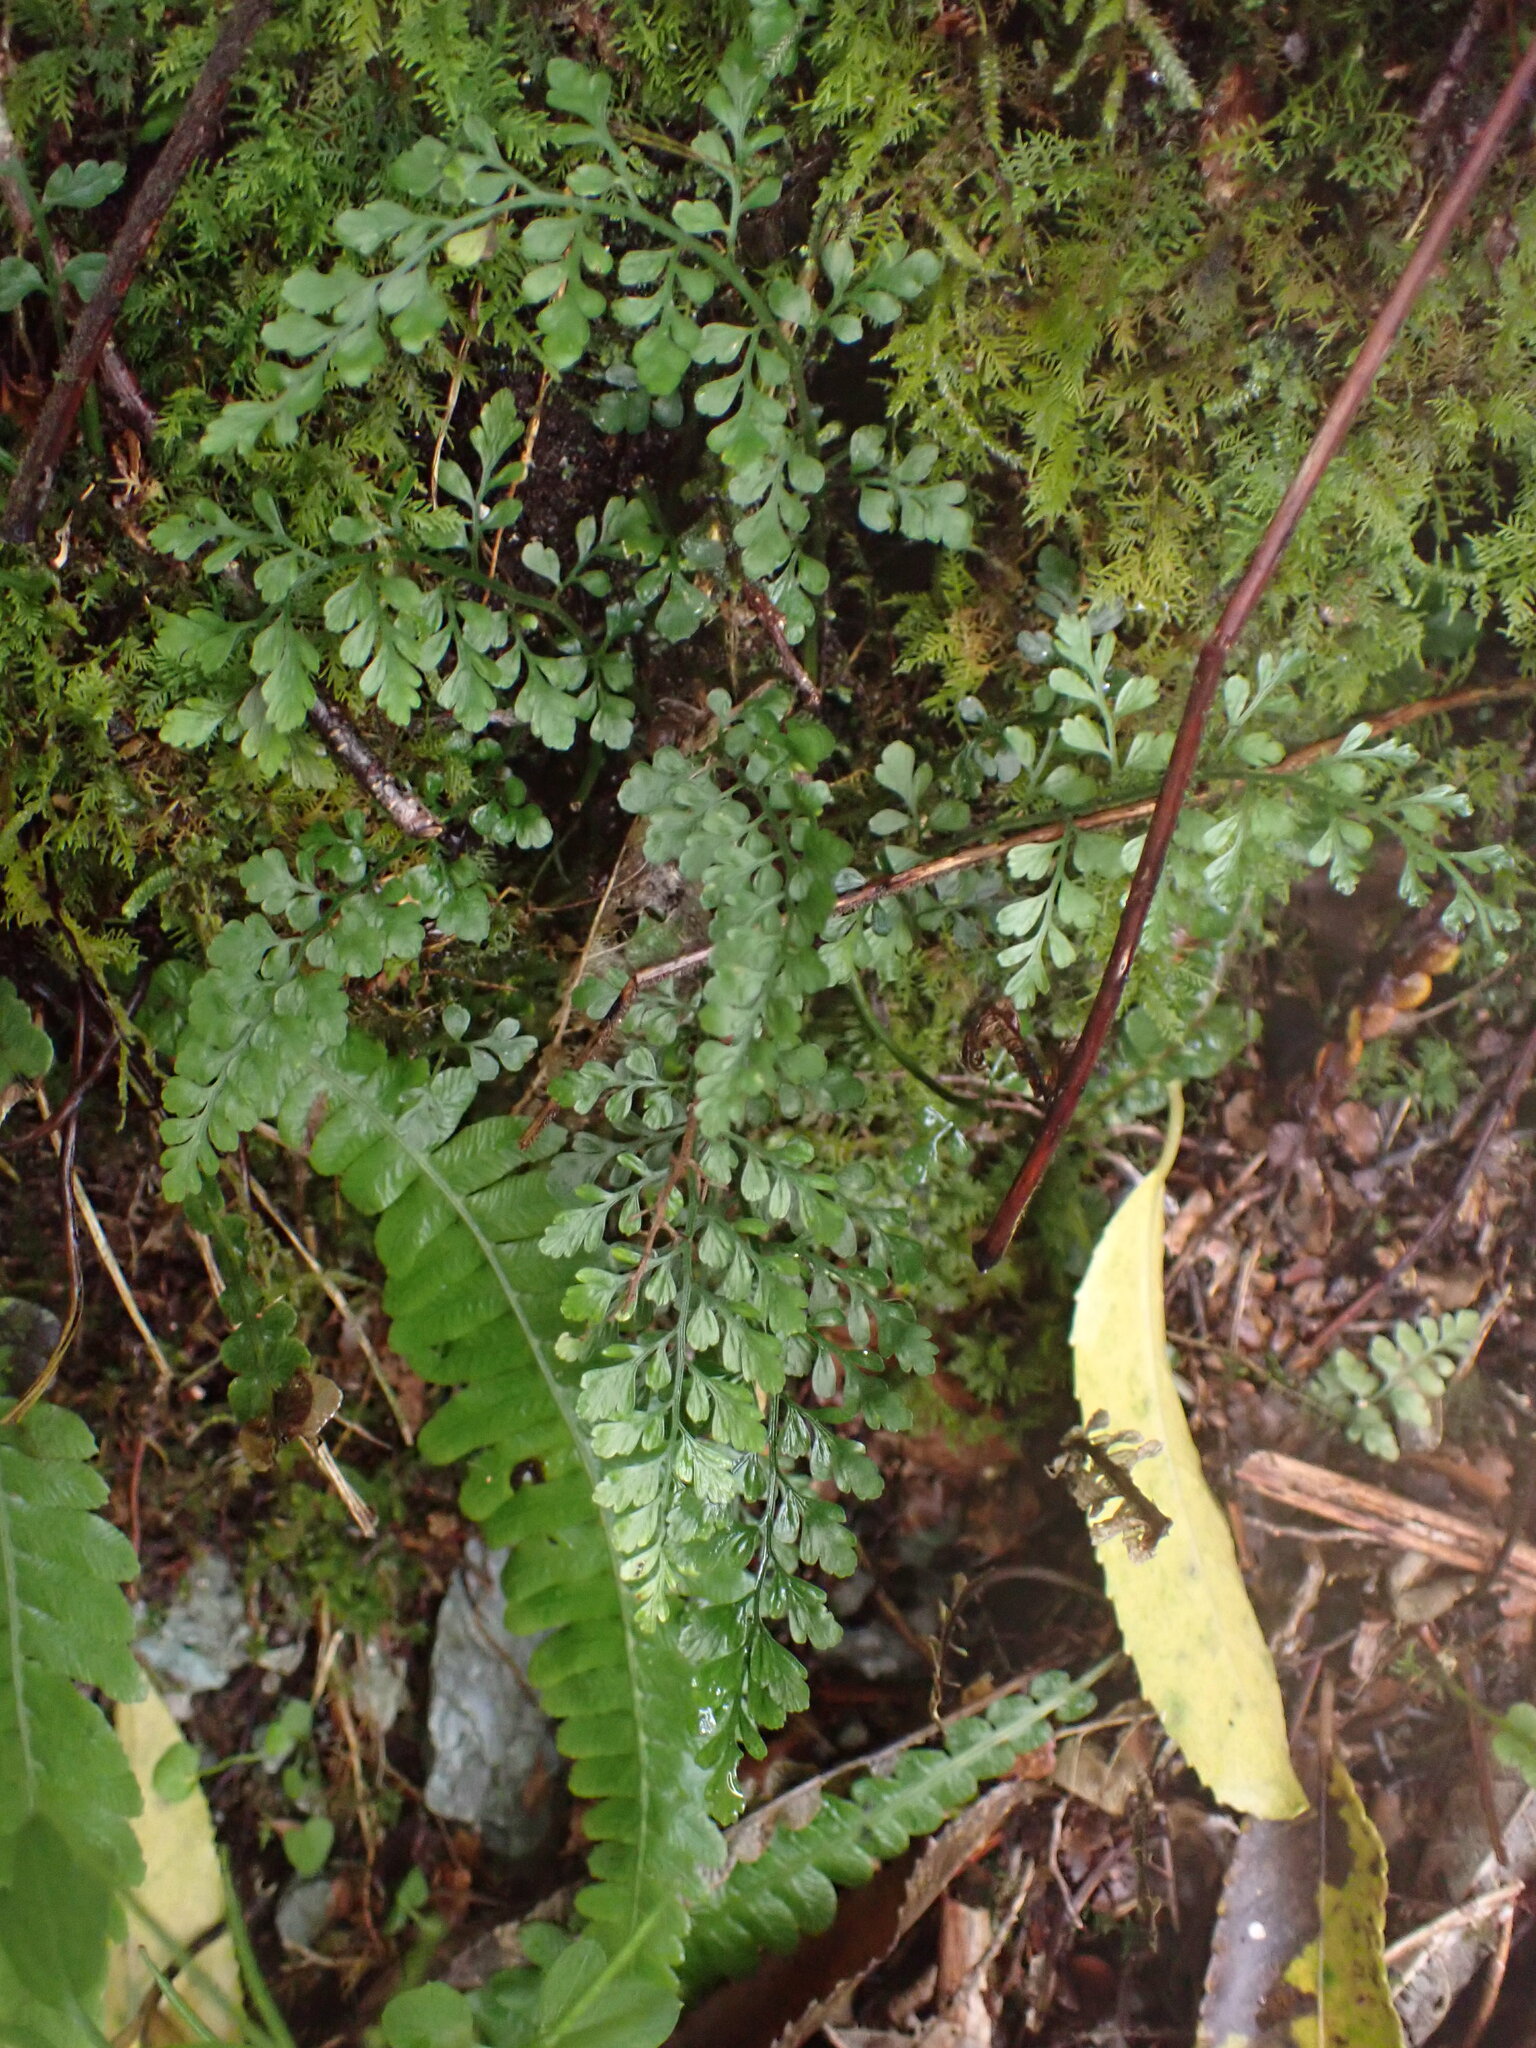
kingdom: Plantae
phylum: Tracheophyta
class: Polypodiopsida
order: Polypodiales
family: Aspleniaceae
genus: Asplenium
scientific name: Asplenium hookerianum
